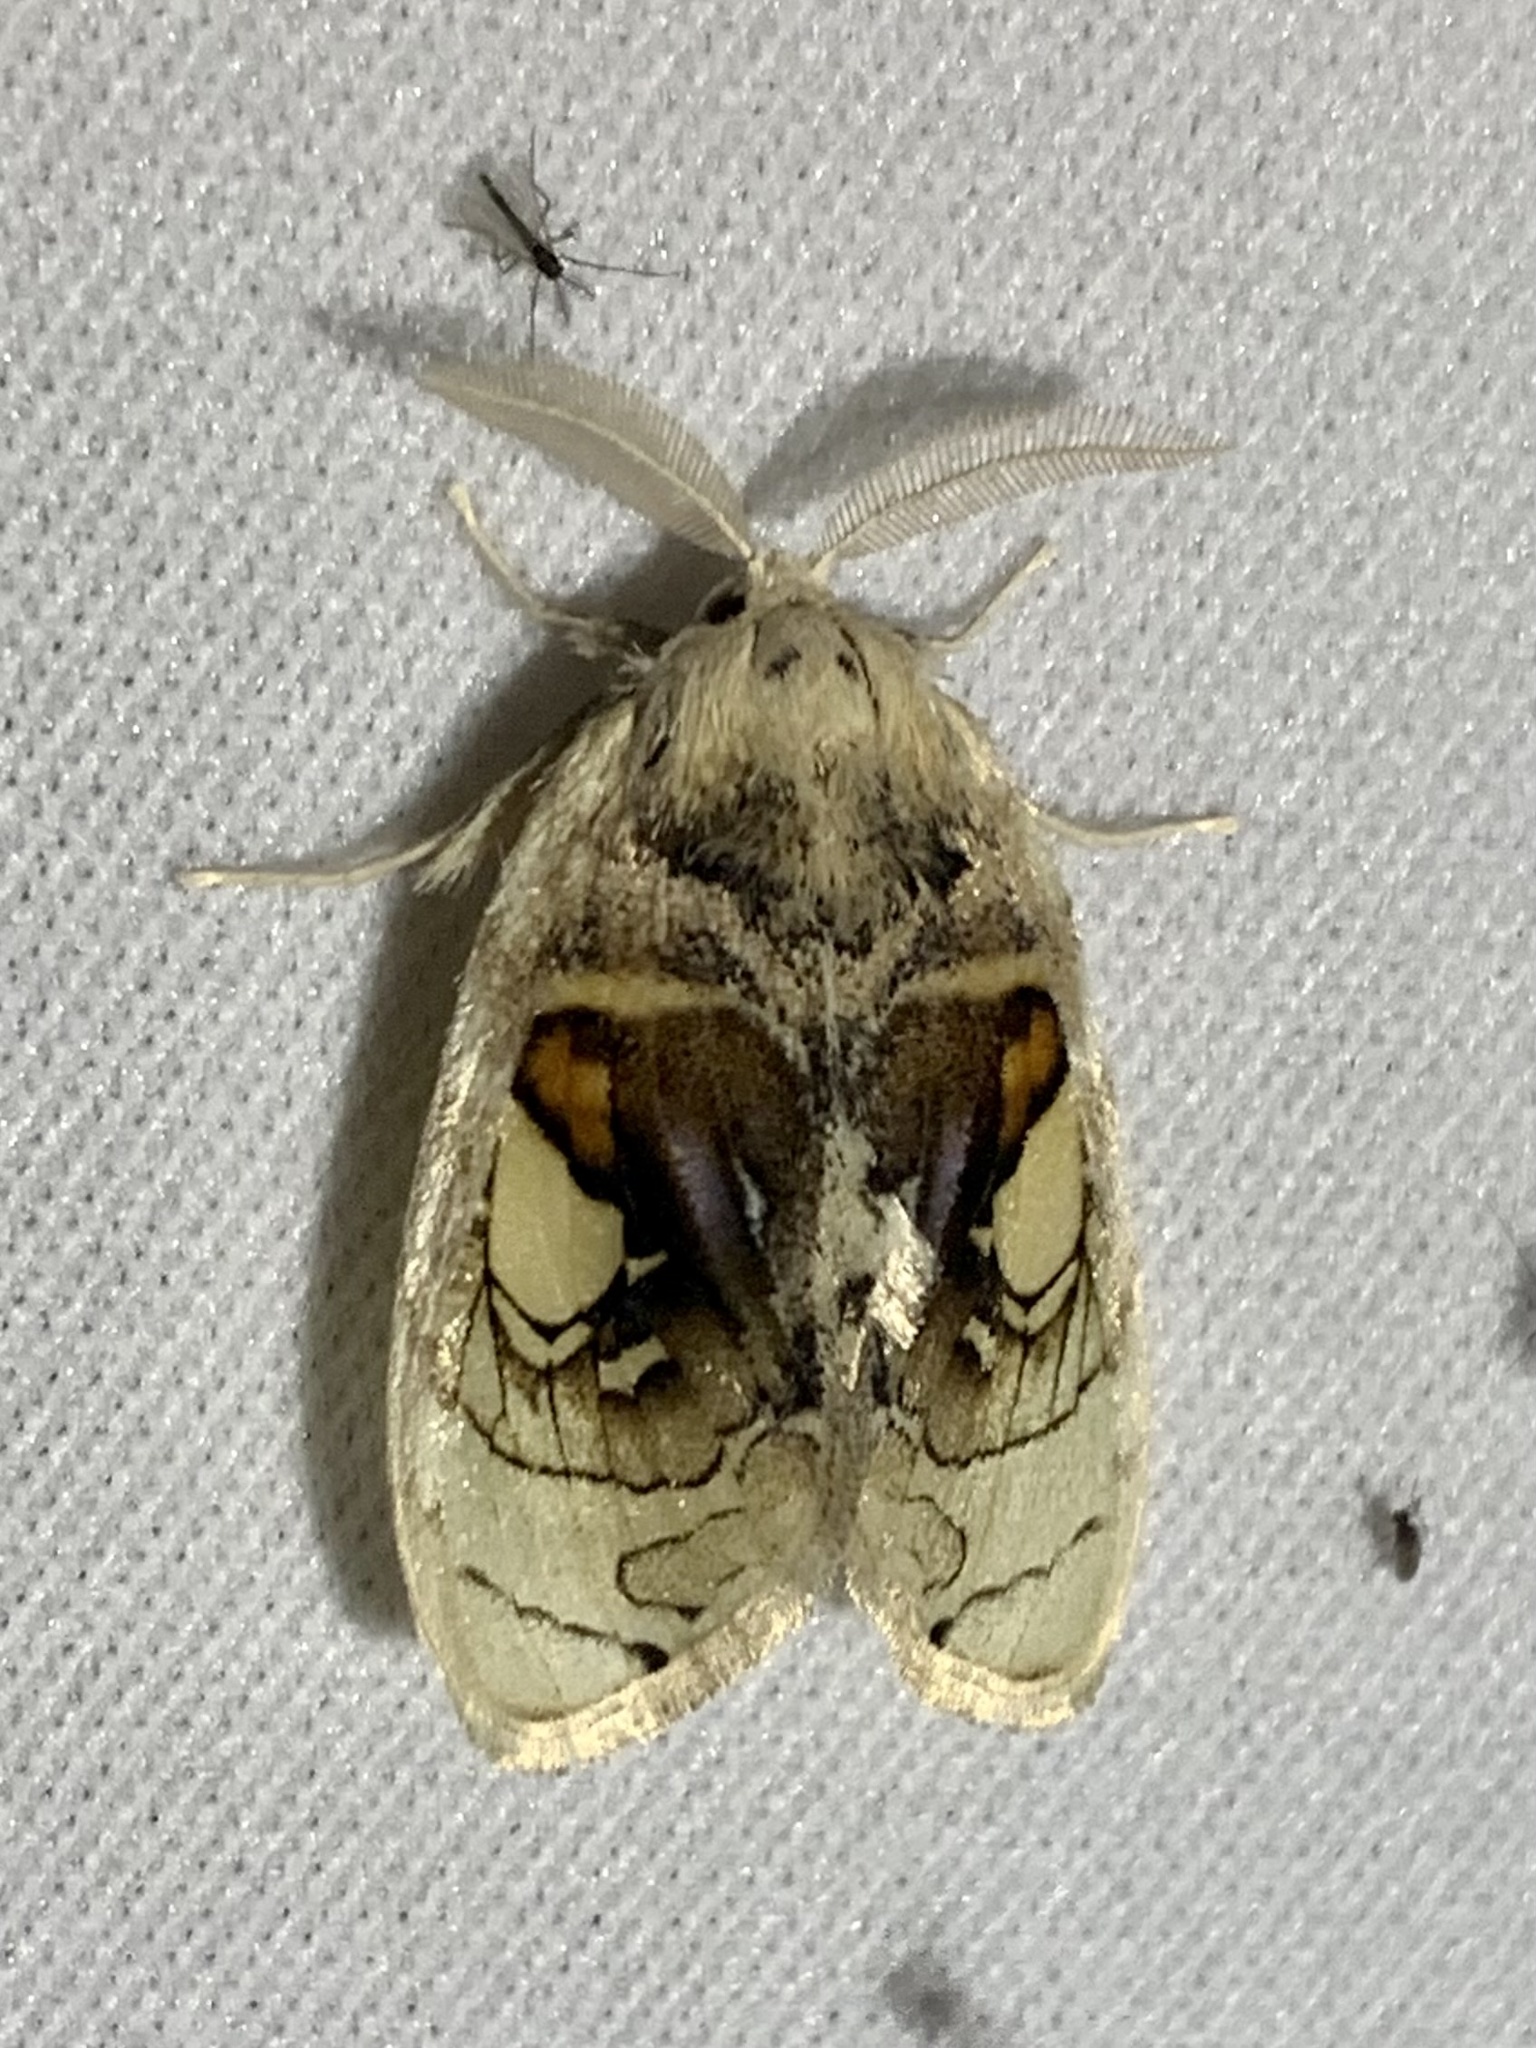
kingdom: Animalia
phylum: Arthropoda
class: Insecta
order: Lepidoptera
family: Psychidae
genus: Arrhenophanes
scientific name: Arrhenophanes perspicilla
